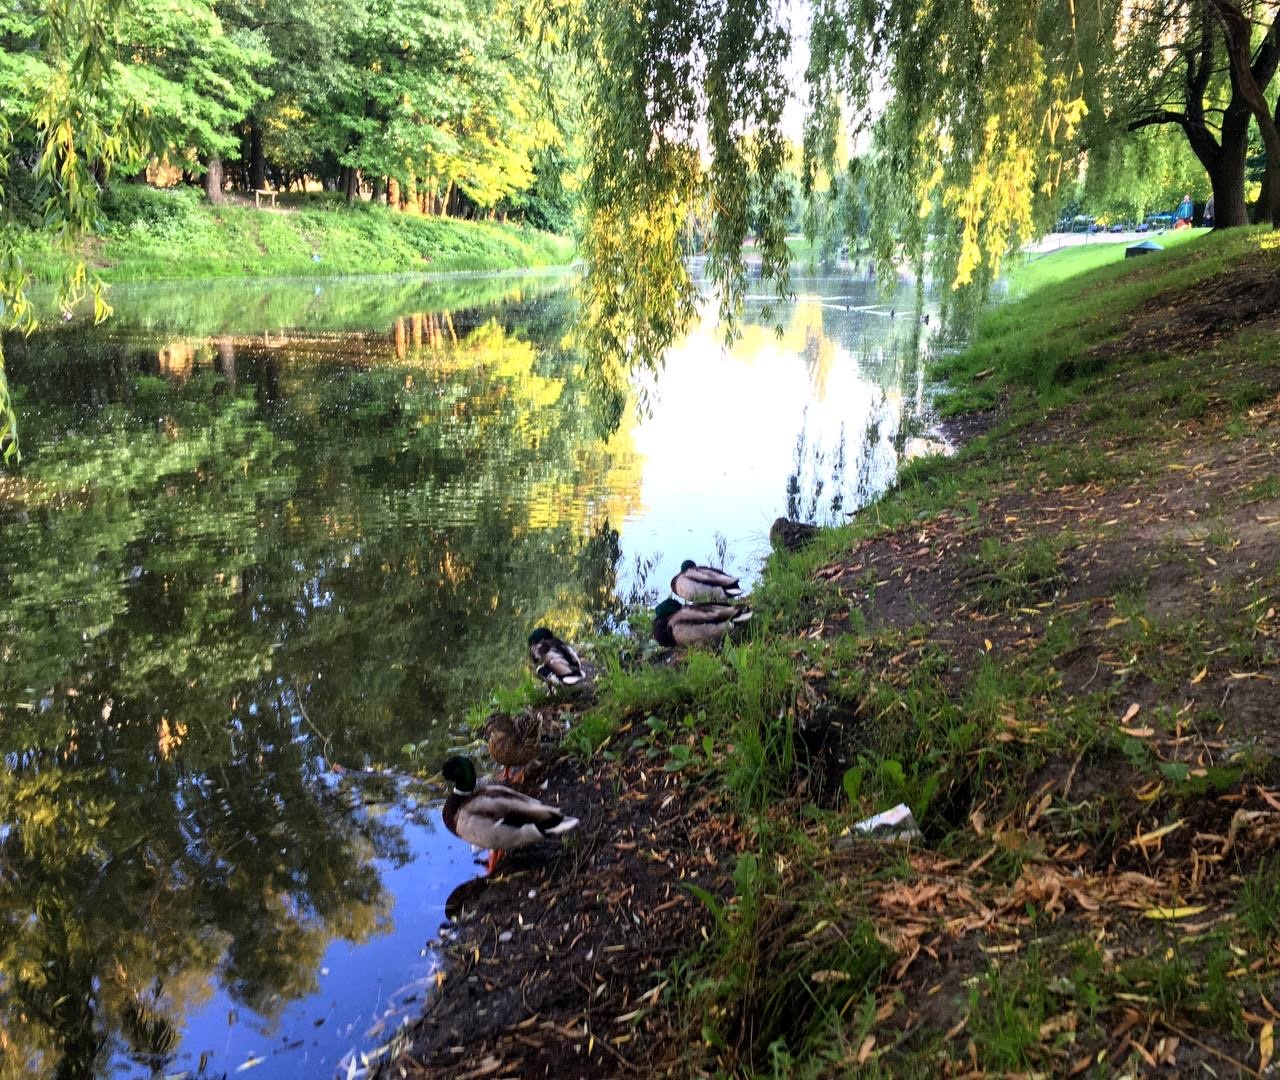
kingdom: Animalia
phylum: Chordata
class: Aves
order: Anseriformes
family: Anatidae
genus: Anas
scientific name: Anas platyrhynchos
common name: Mallard
